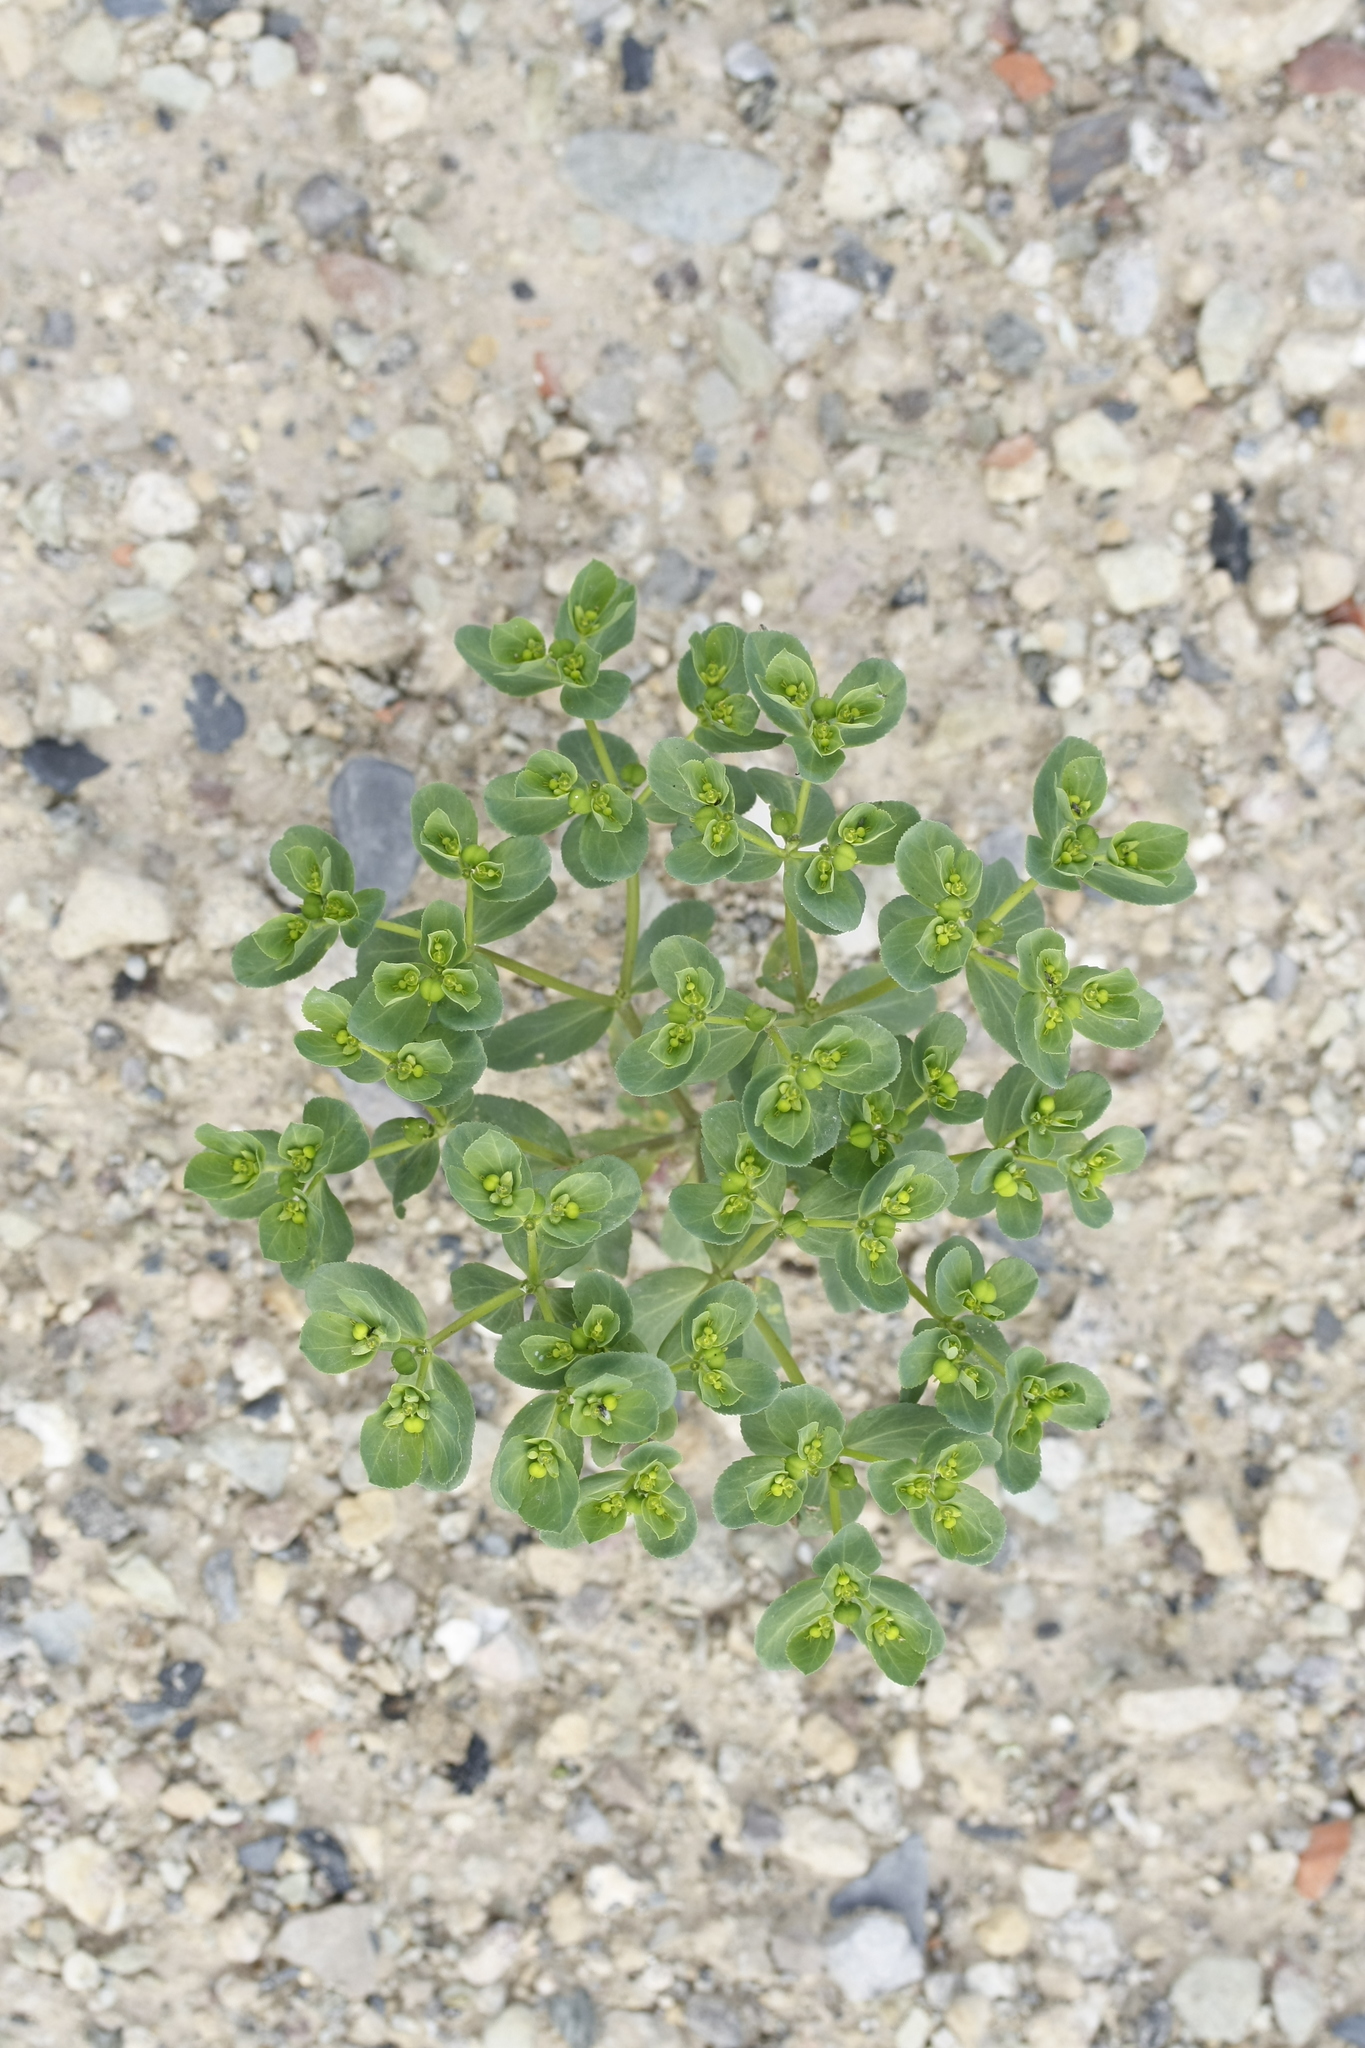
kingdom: Plantae
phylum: Tracheophyta
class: Magnoliopsida
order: Malpighiales
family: Euphorbiaceae
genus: Euphorbia
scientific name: Euphorbia helioscopia
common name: Sun spurge
